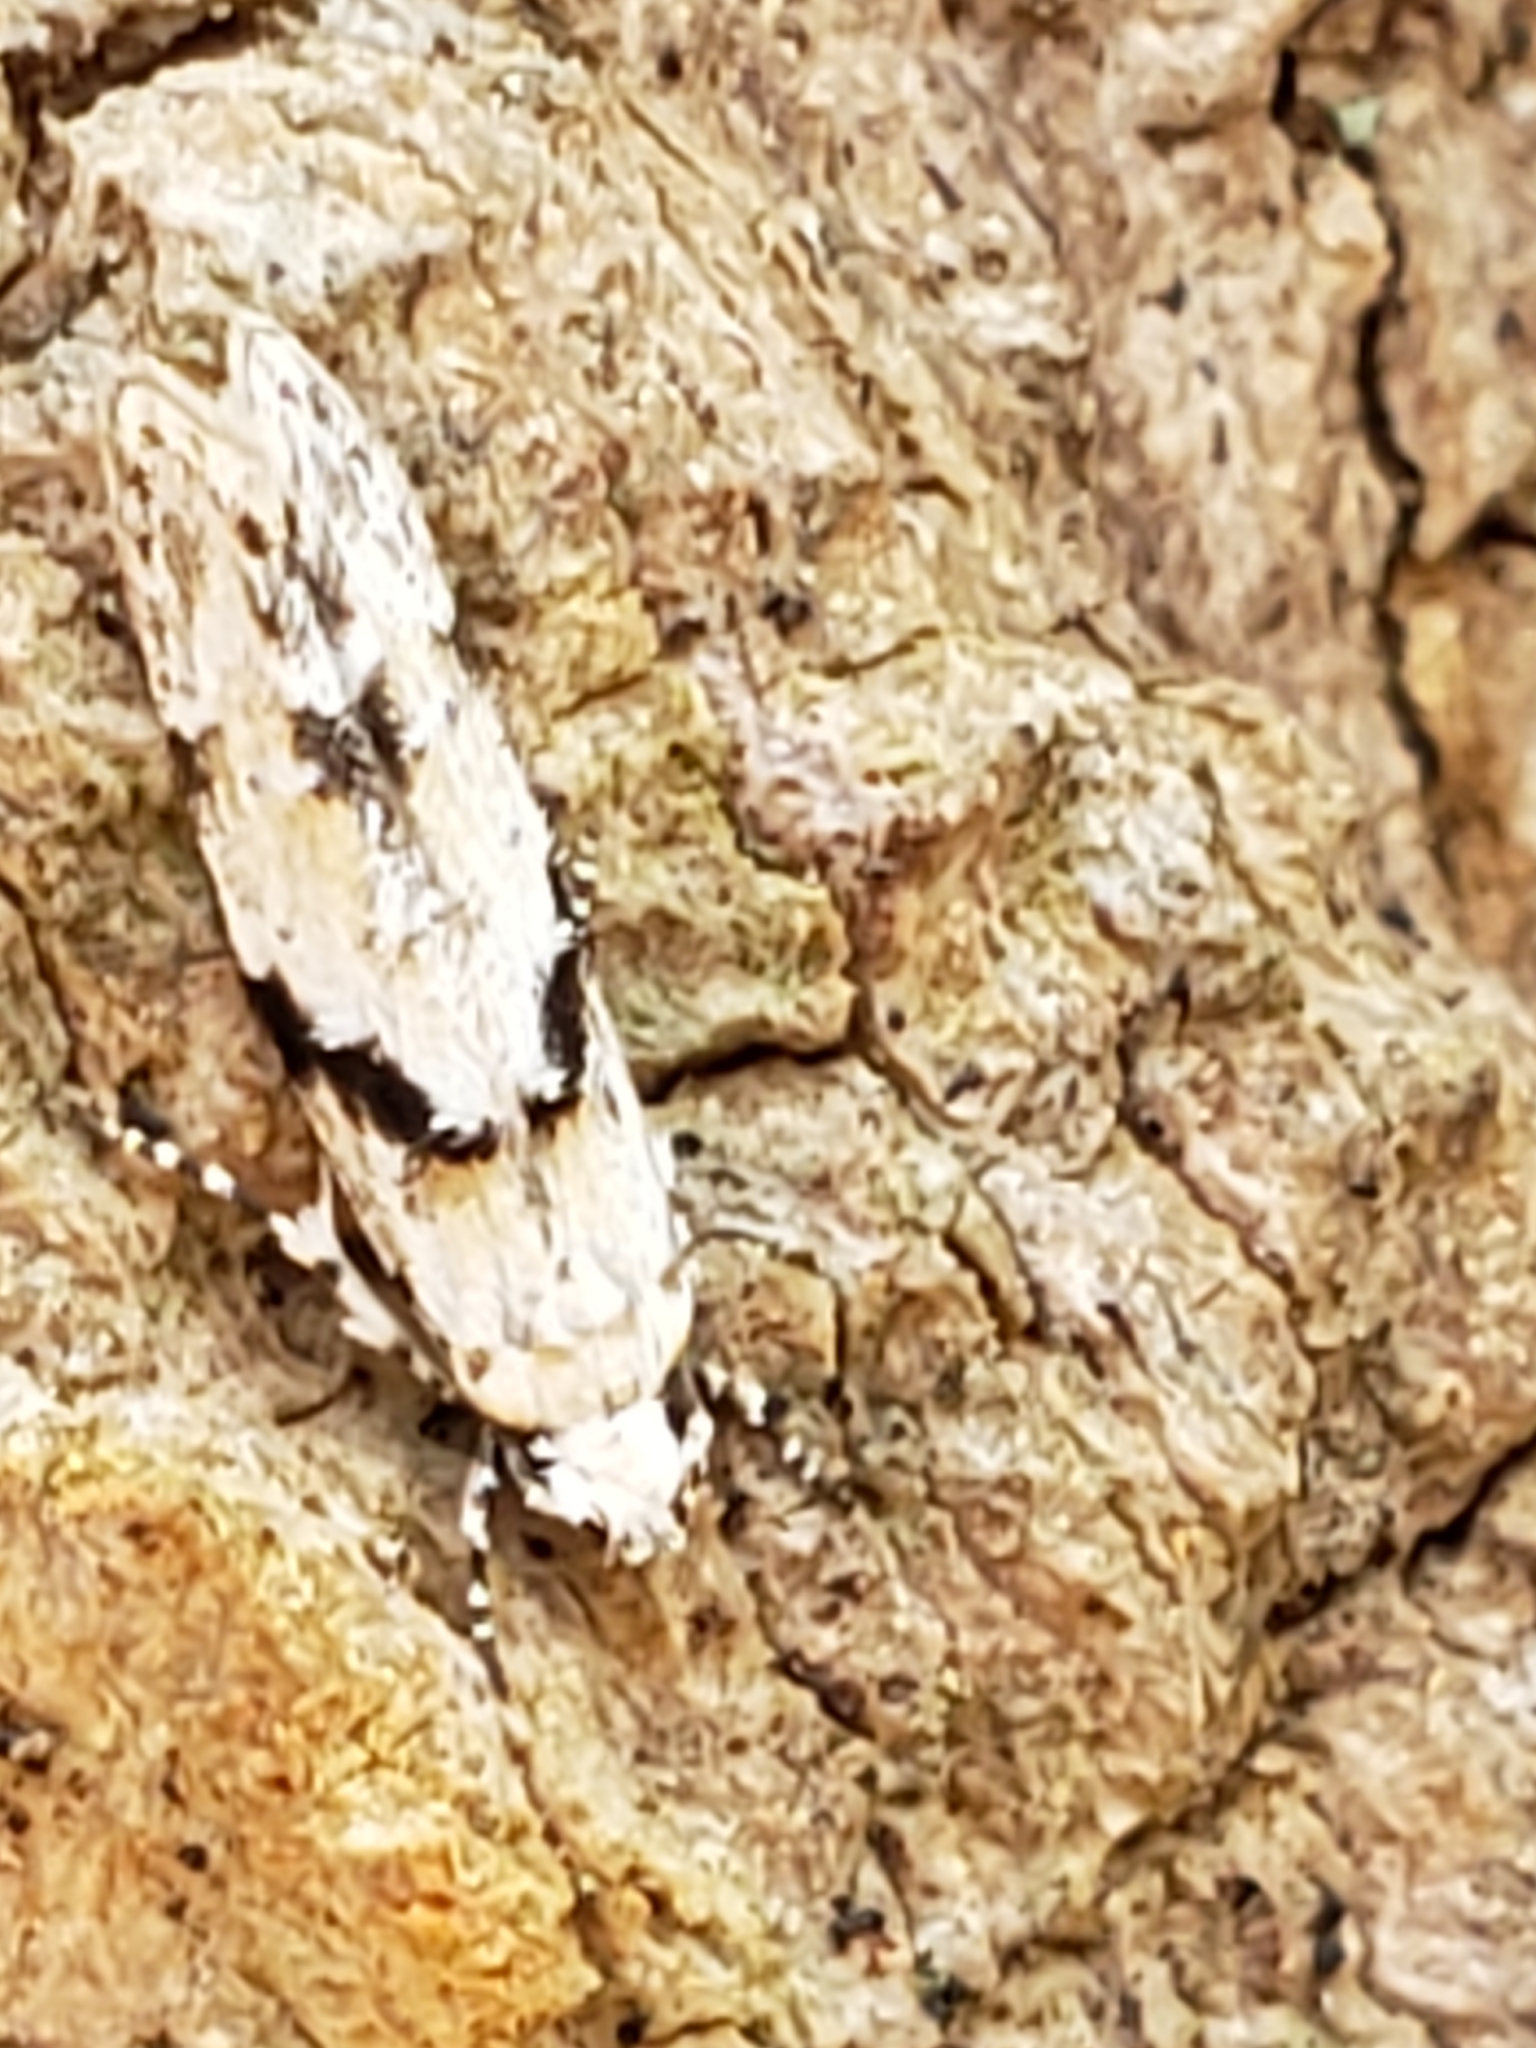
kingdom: Animalia
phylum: Arthropoda
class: Insecta
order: Lepidoptera
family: Gelechiidae
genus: Arogalea
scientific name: Arogalea cristifasciella
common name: White stripe-backed moth
